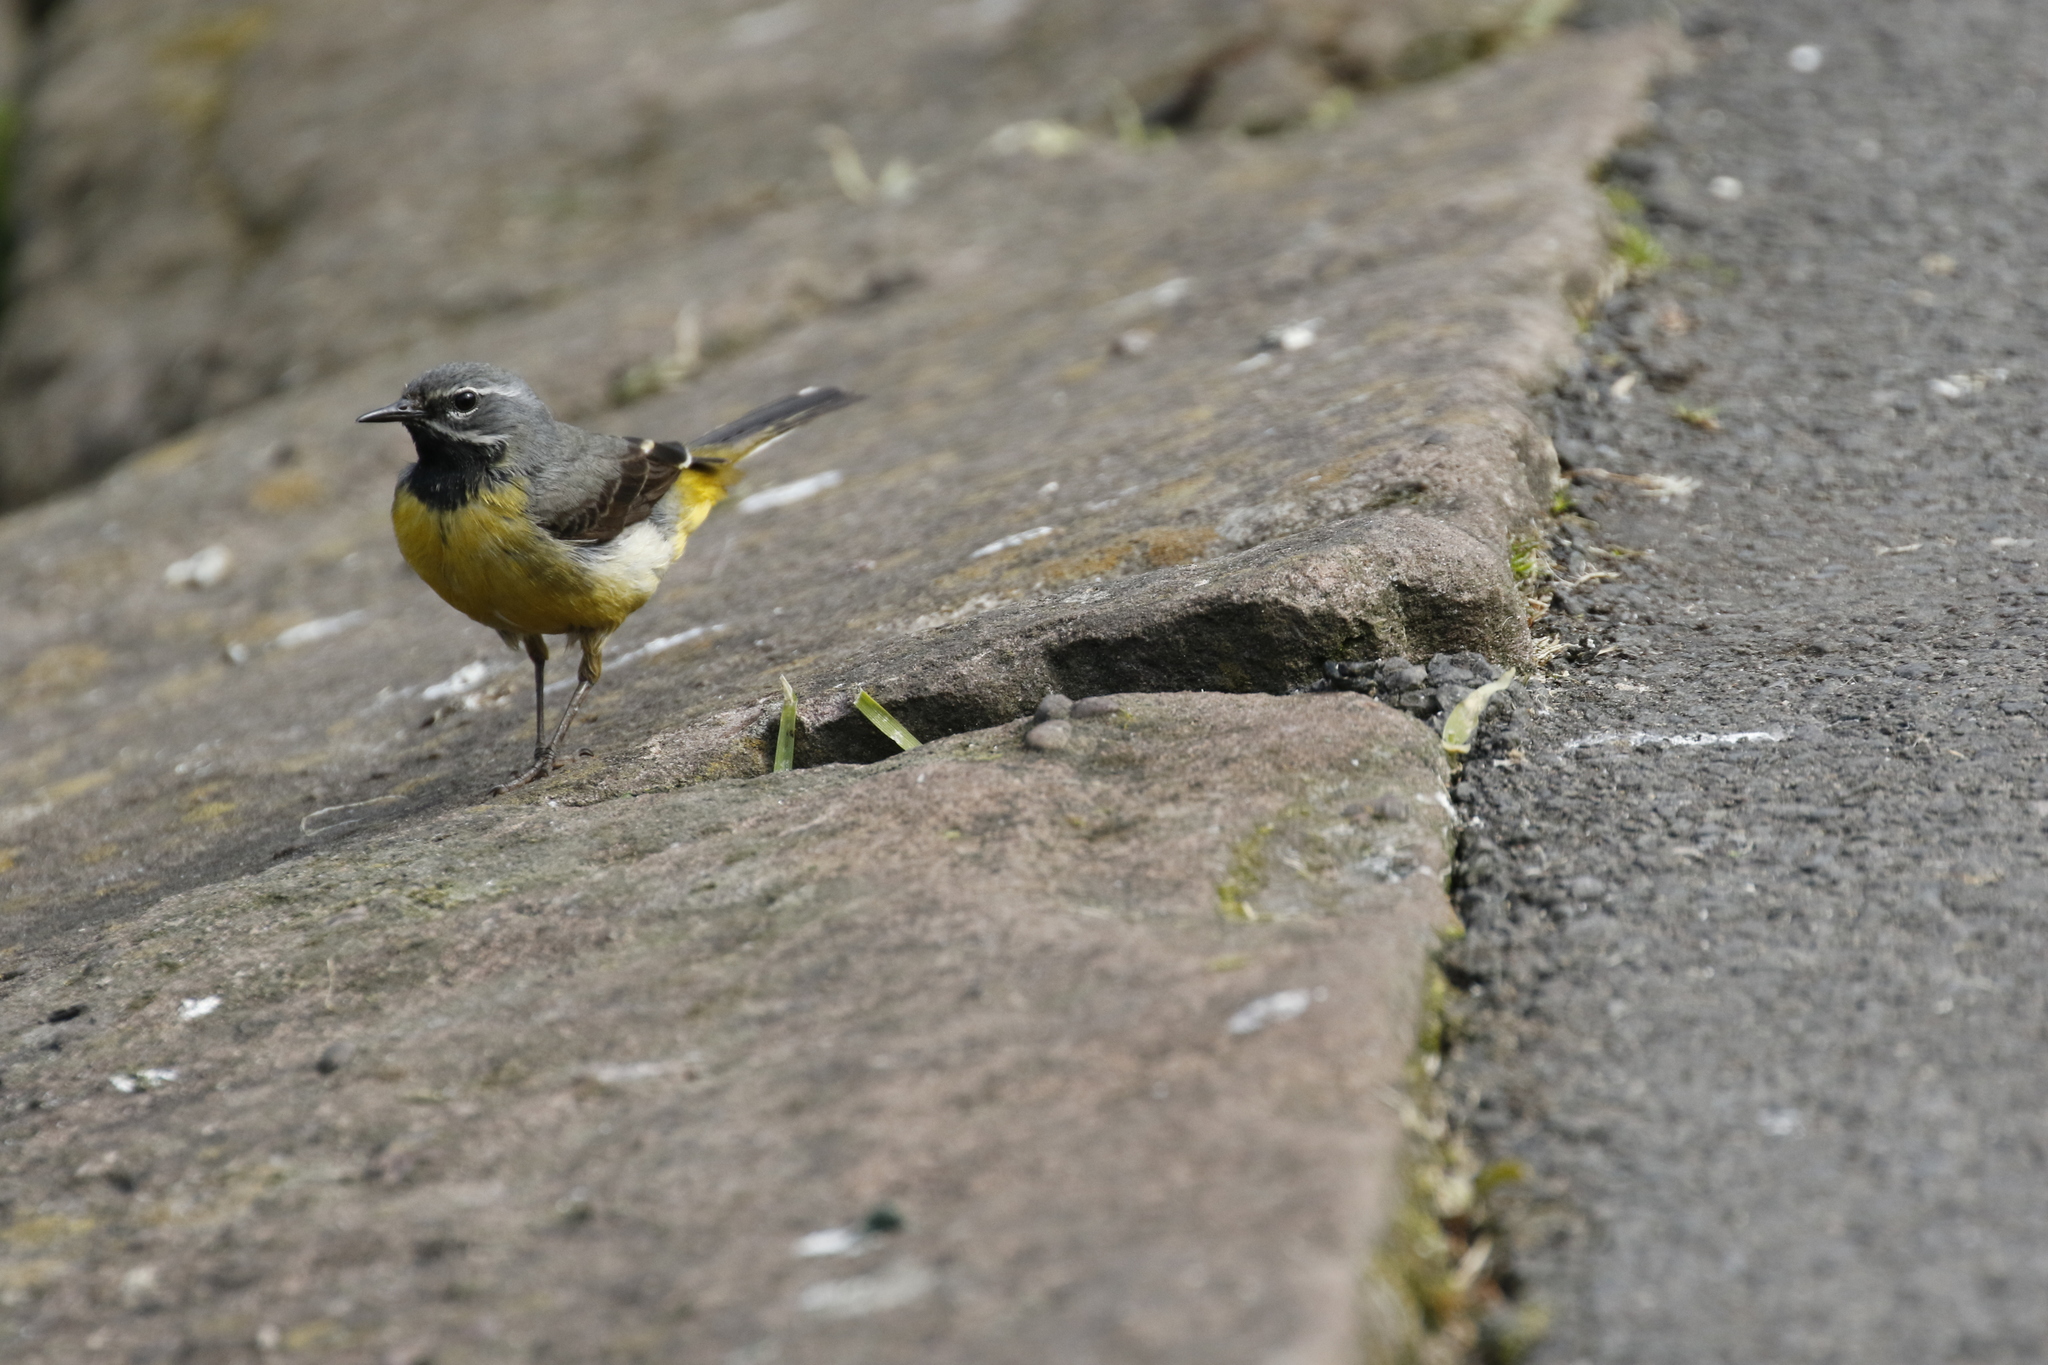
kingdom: Animalia
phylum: Chordata
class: Aves
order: Passeriformes
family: Motacillidae
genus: Motacilla
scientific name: Motacilla cinerea
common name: Grey wagtail
